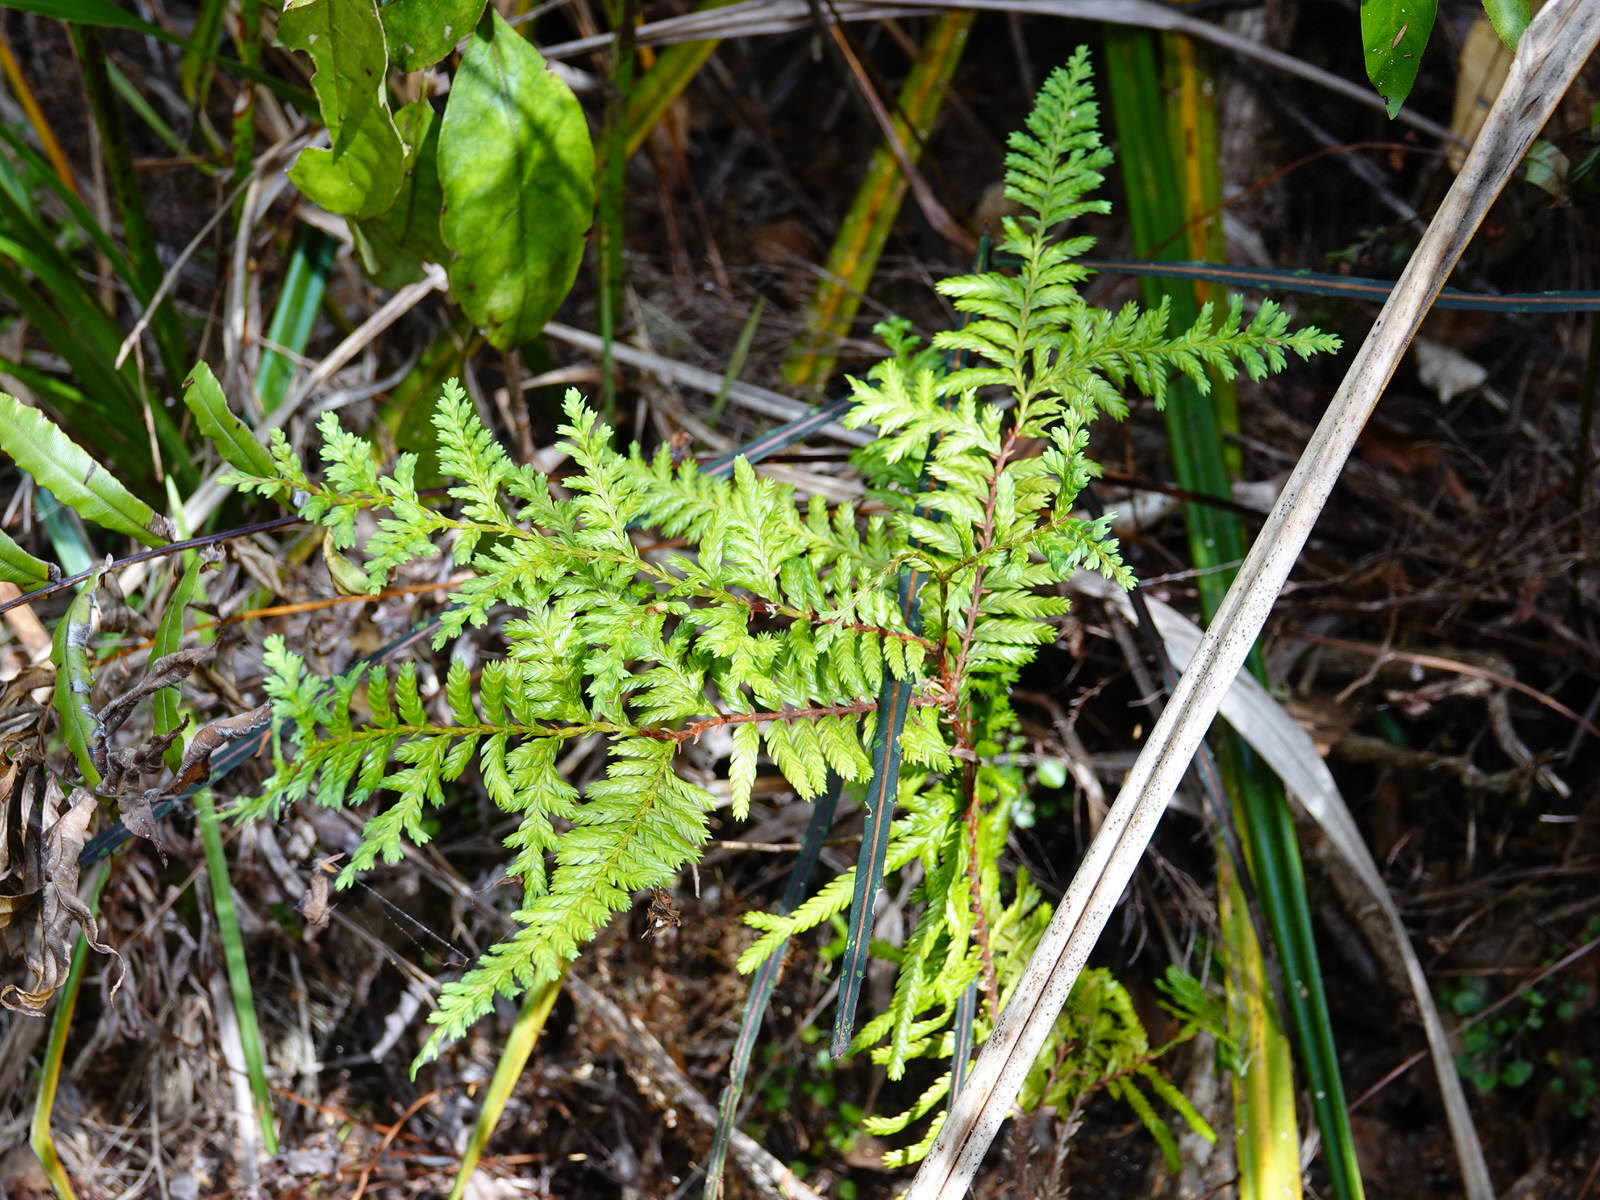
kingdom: Plantae
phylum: Tracheophyta
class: Pinopsida
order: Pinales
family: Cupressaceae
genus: Libocedrus
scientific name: Libocedrus plumosa
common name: New zealand cedar
